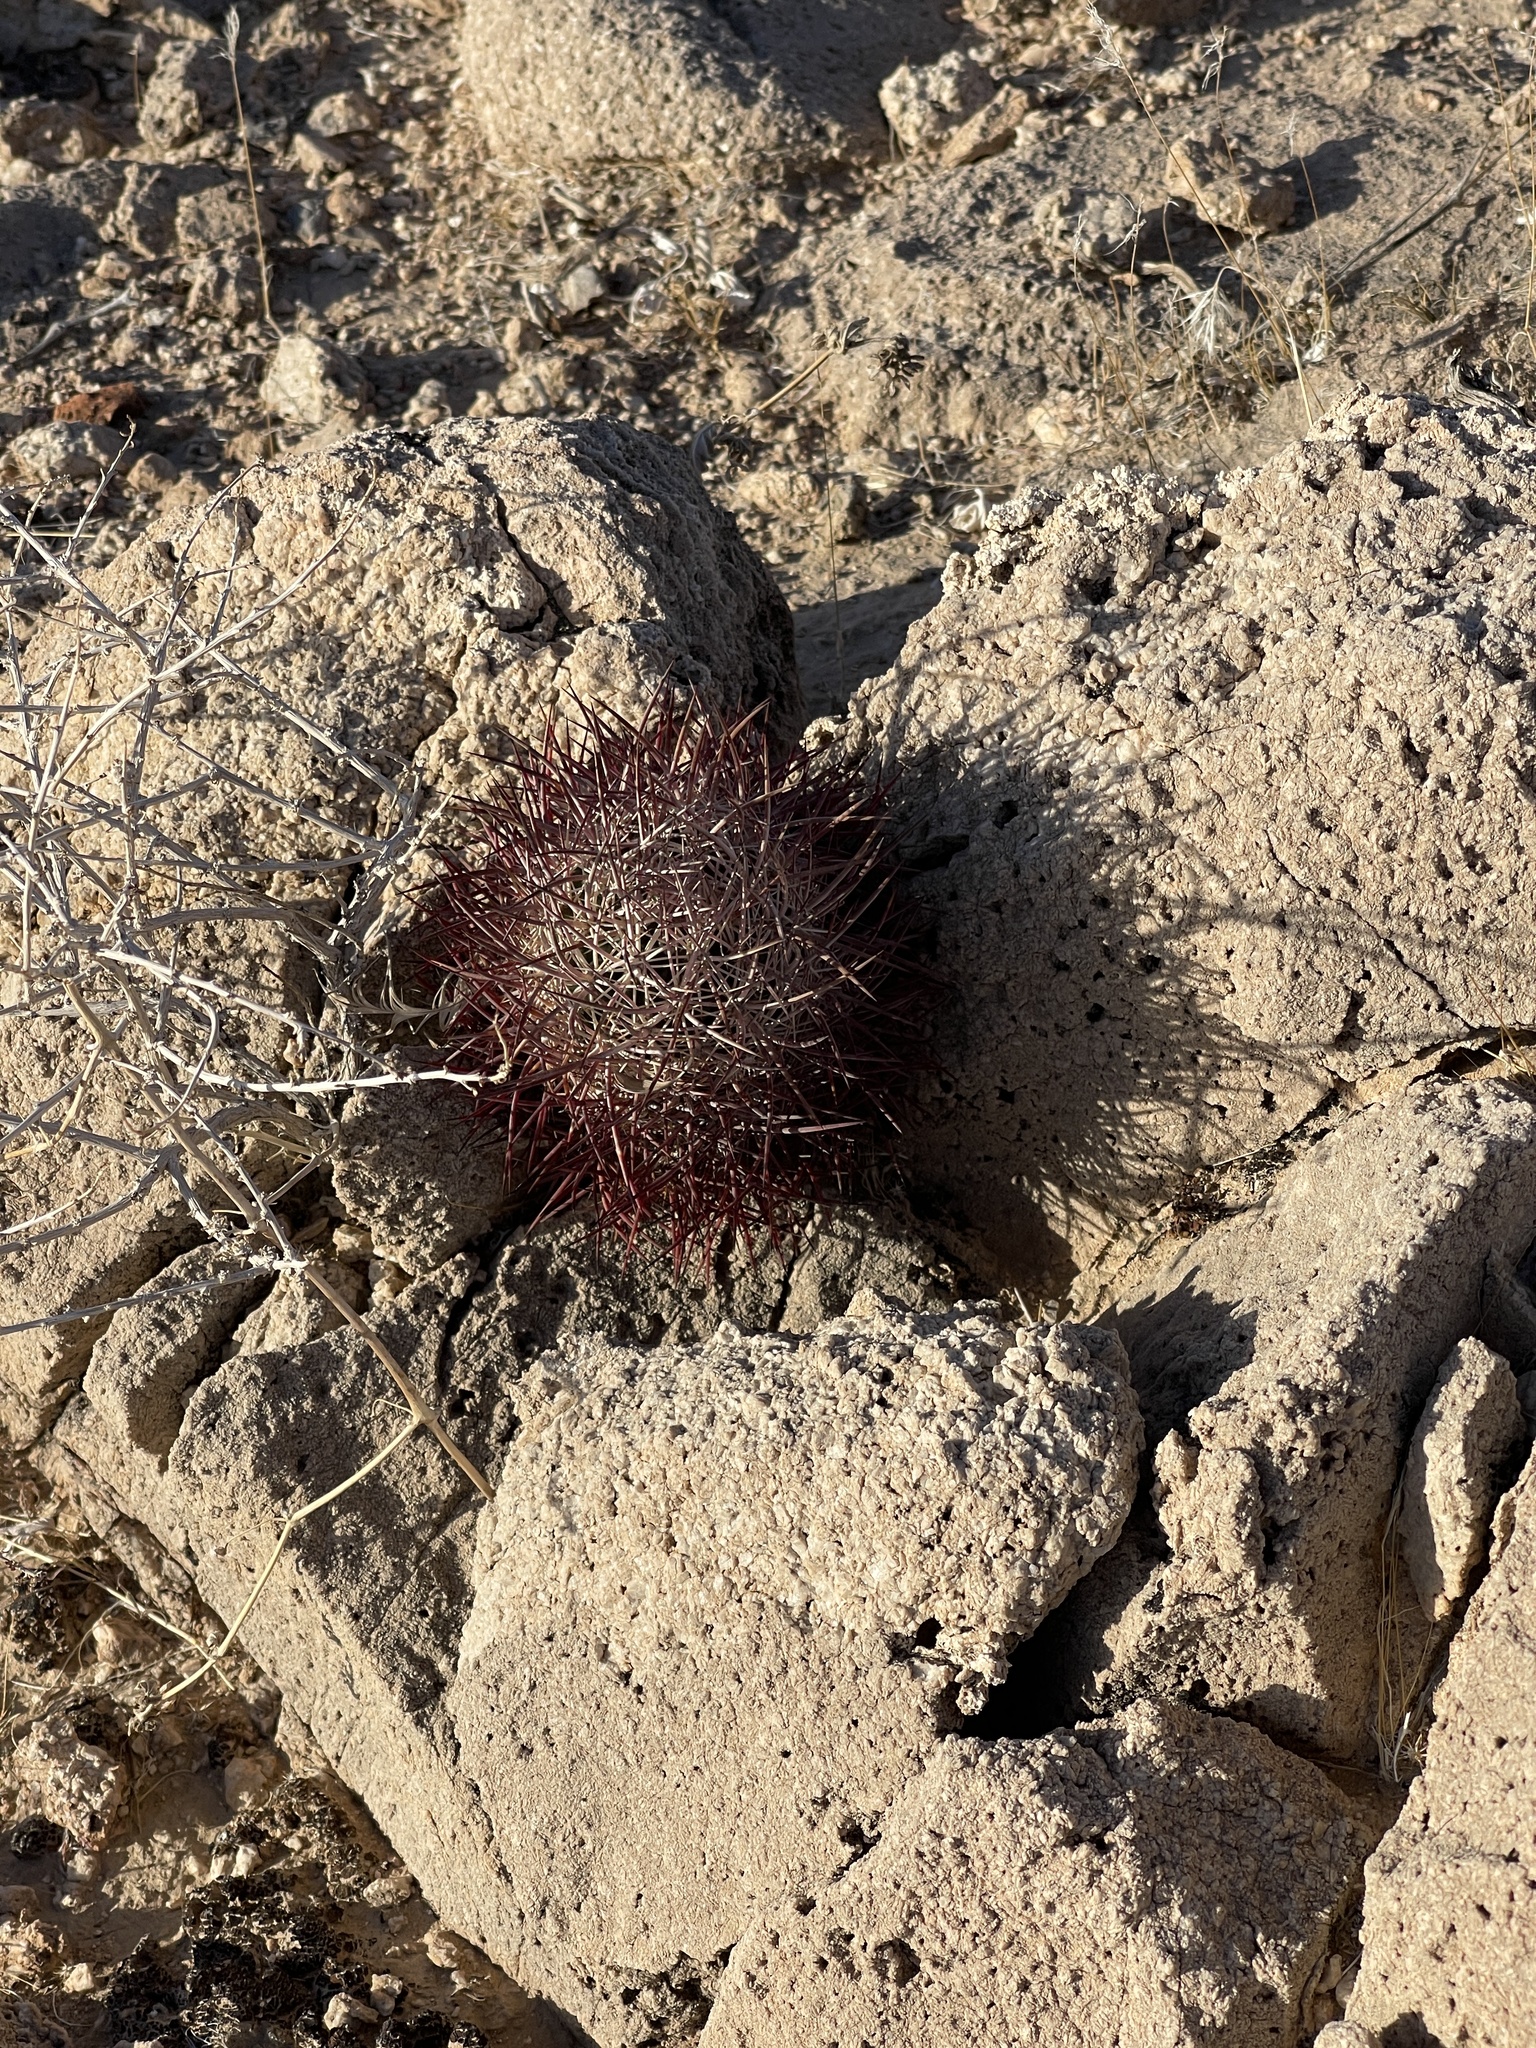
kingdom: Plantae
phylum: Tracheophyta
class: Magnoliopsida
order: Caryophyllales
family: Cactaceae
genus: Sclerocactus
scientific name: Sclerocactus johnsonii
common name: Eight-spine fishhook cactus
